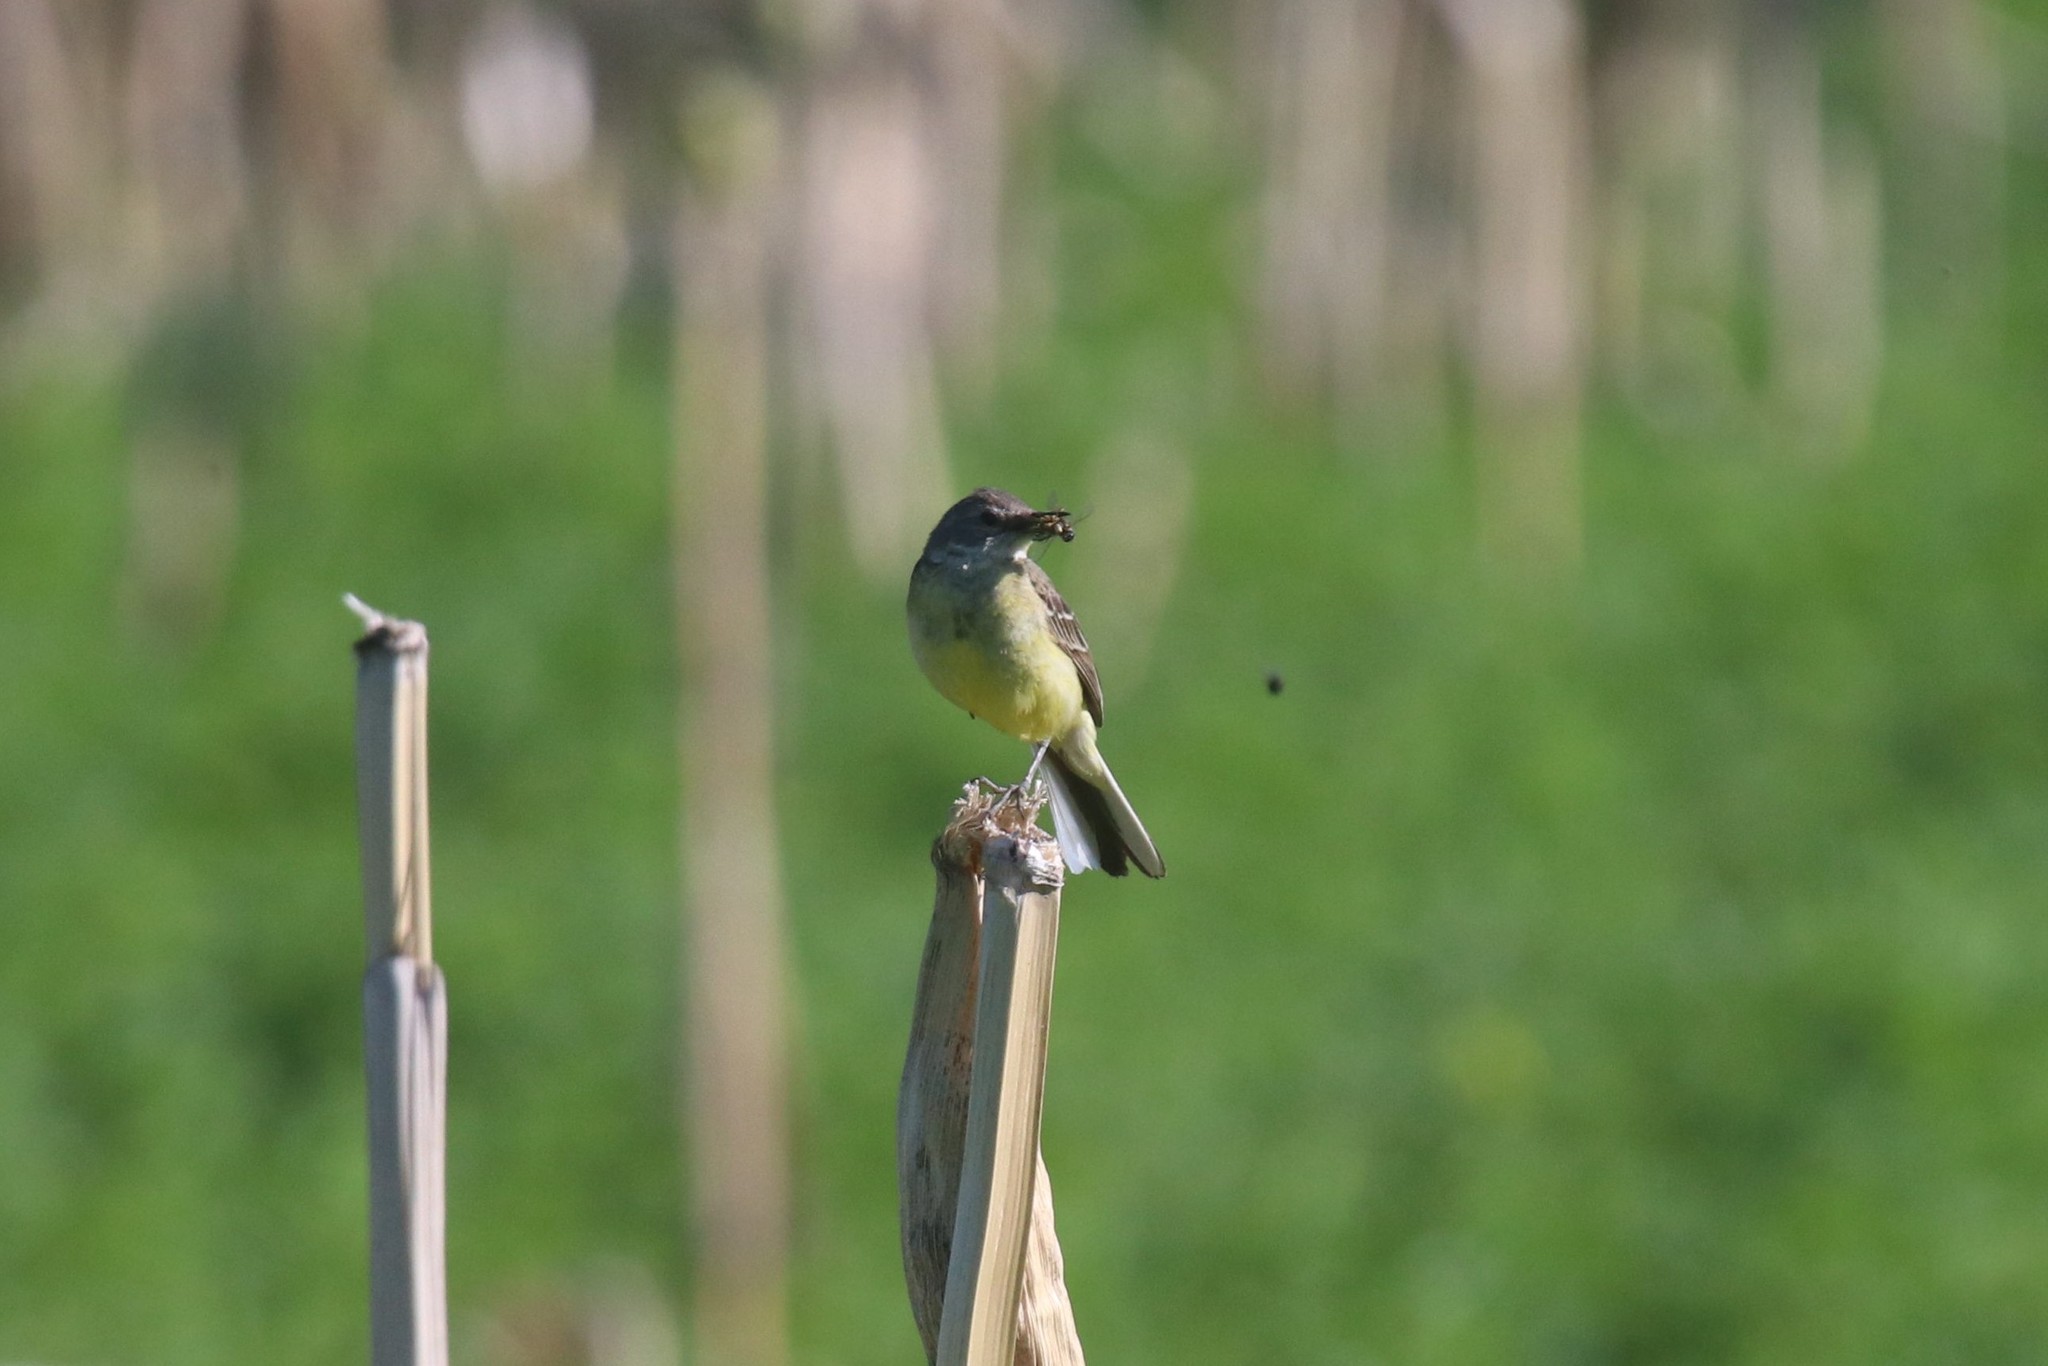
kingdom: Animalia
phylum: Chordata
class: Aves
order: Passeriformes
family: Motacillidae
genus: Motacilla
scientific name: Motacilla flava
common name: Western yellow wagtail
